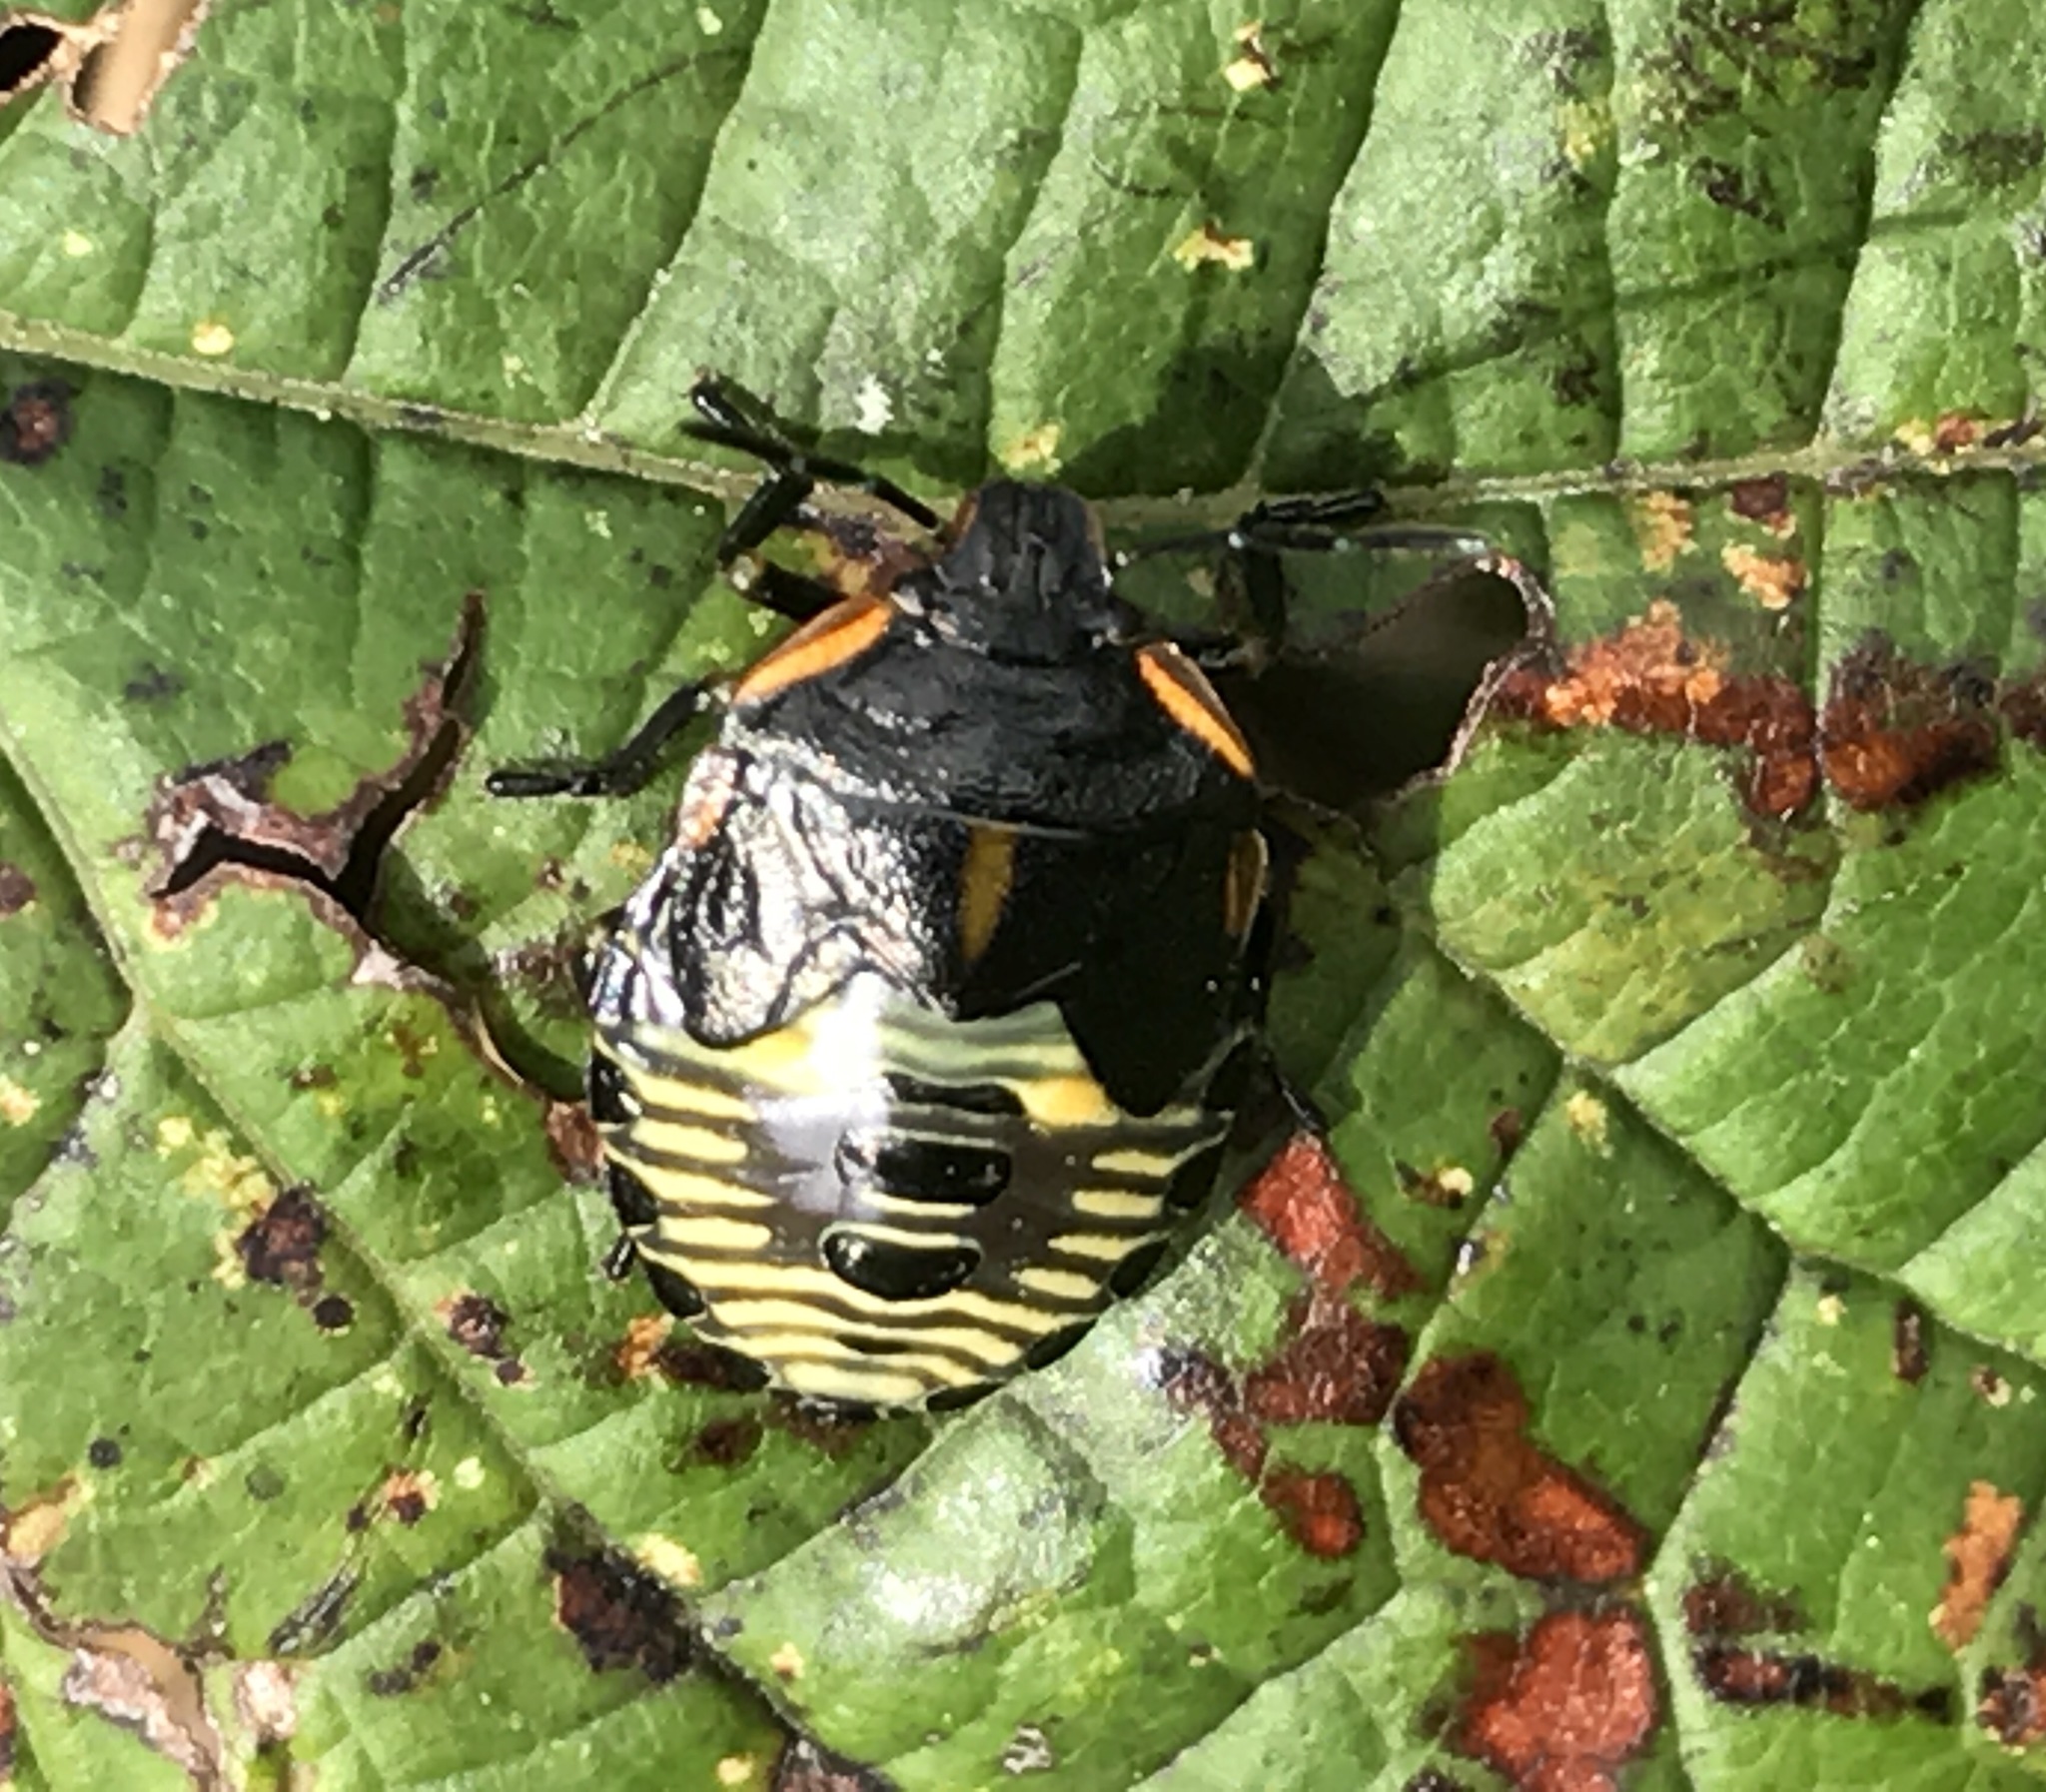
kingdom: Animalia
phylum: Arthropoda
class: Insecta
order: Hemiptera
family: Pentatomidae
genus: Chinavia
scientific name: Chinavia hilaris
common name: Green stink bug
